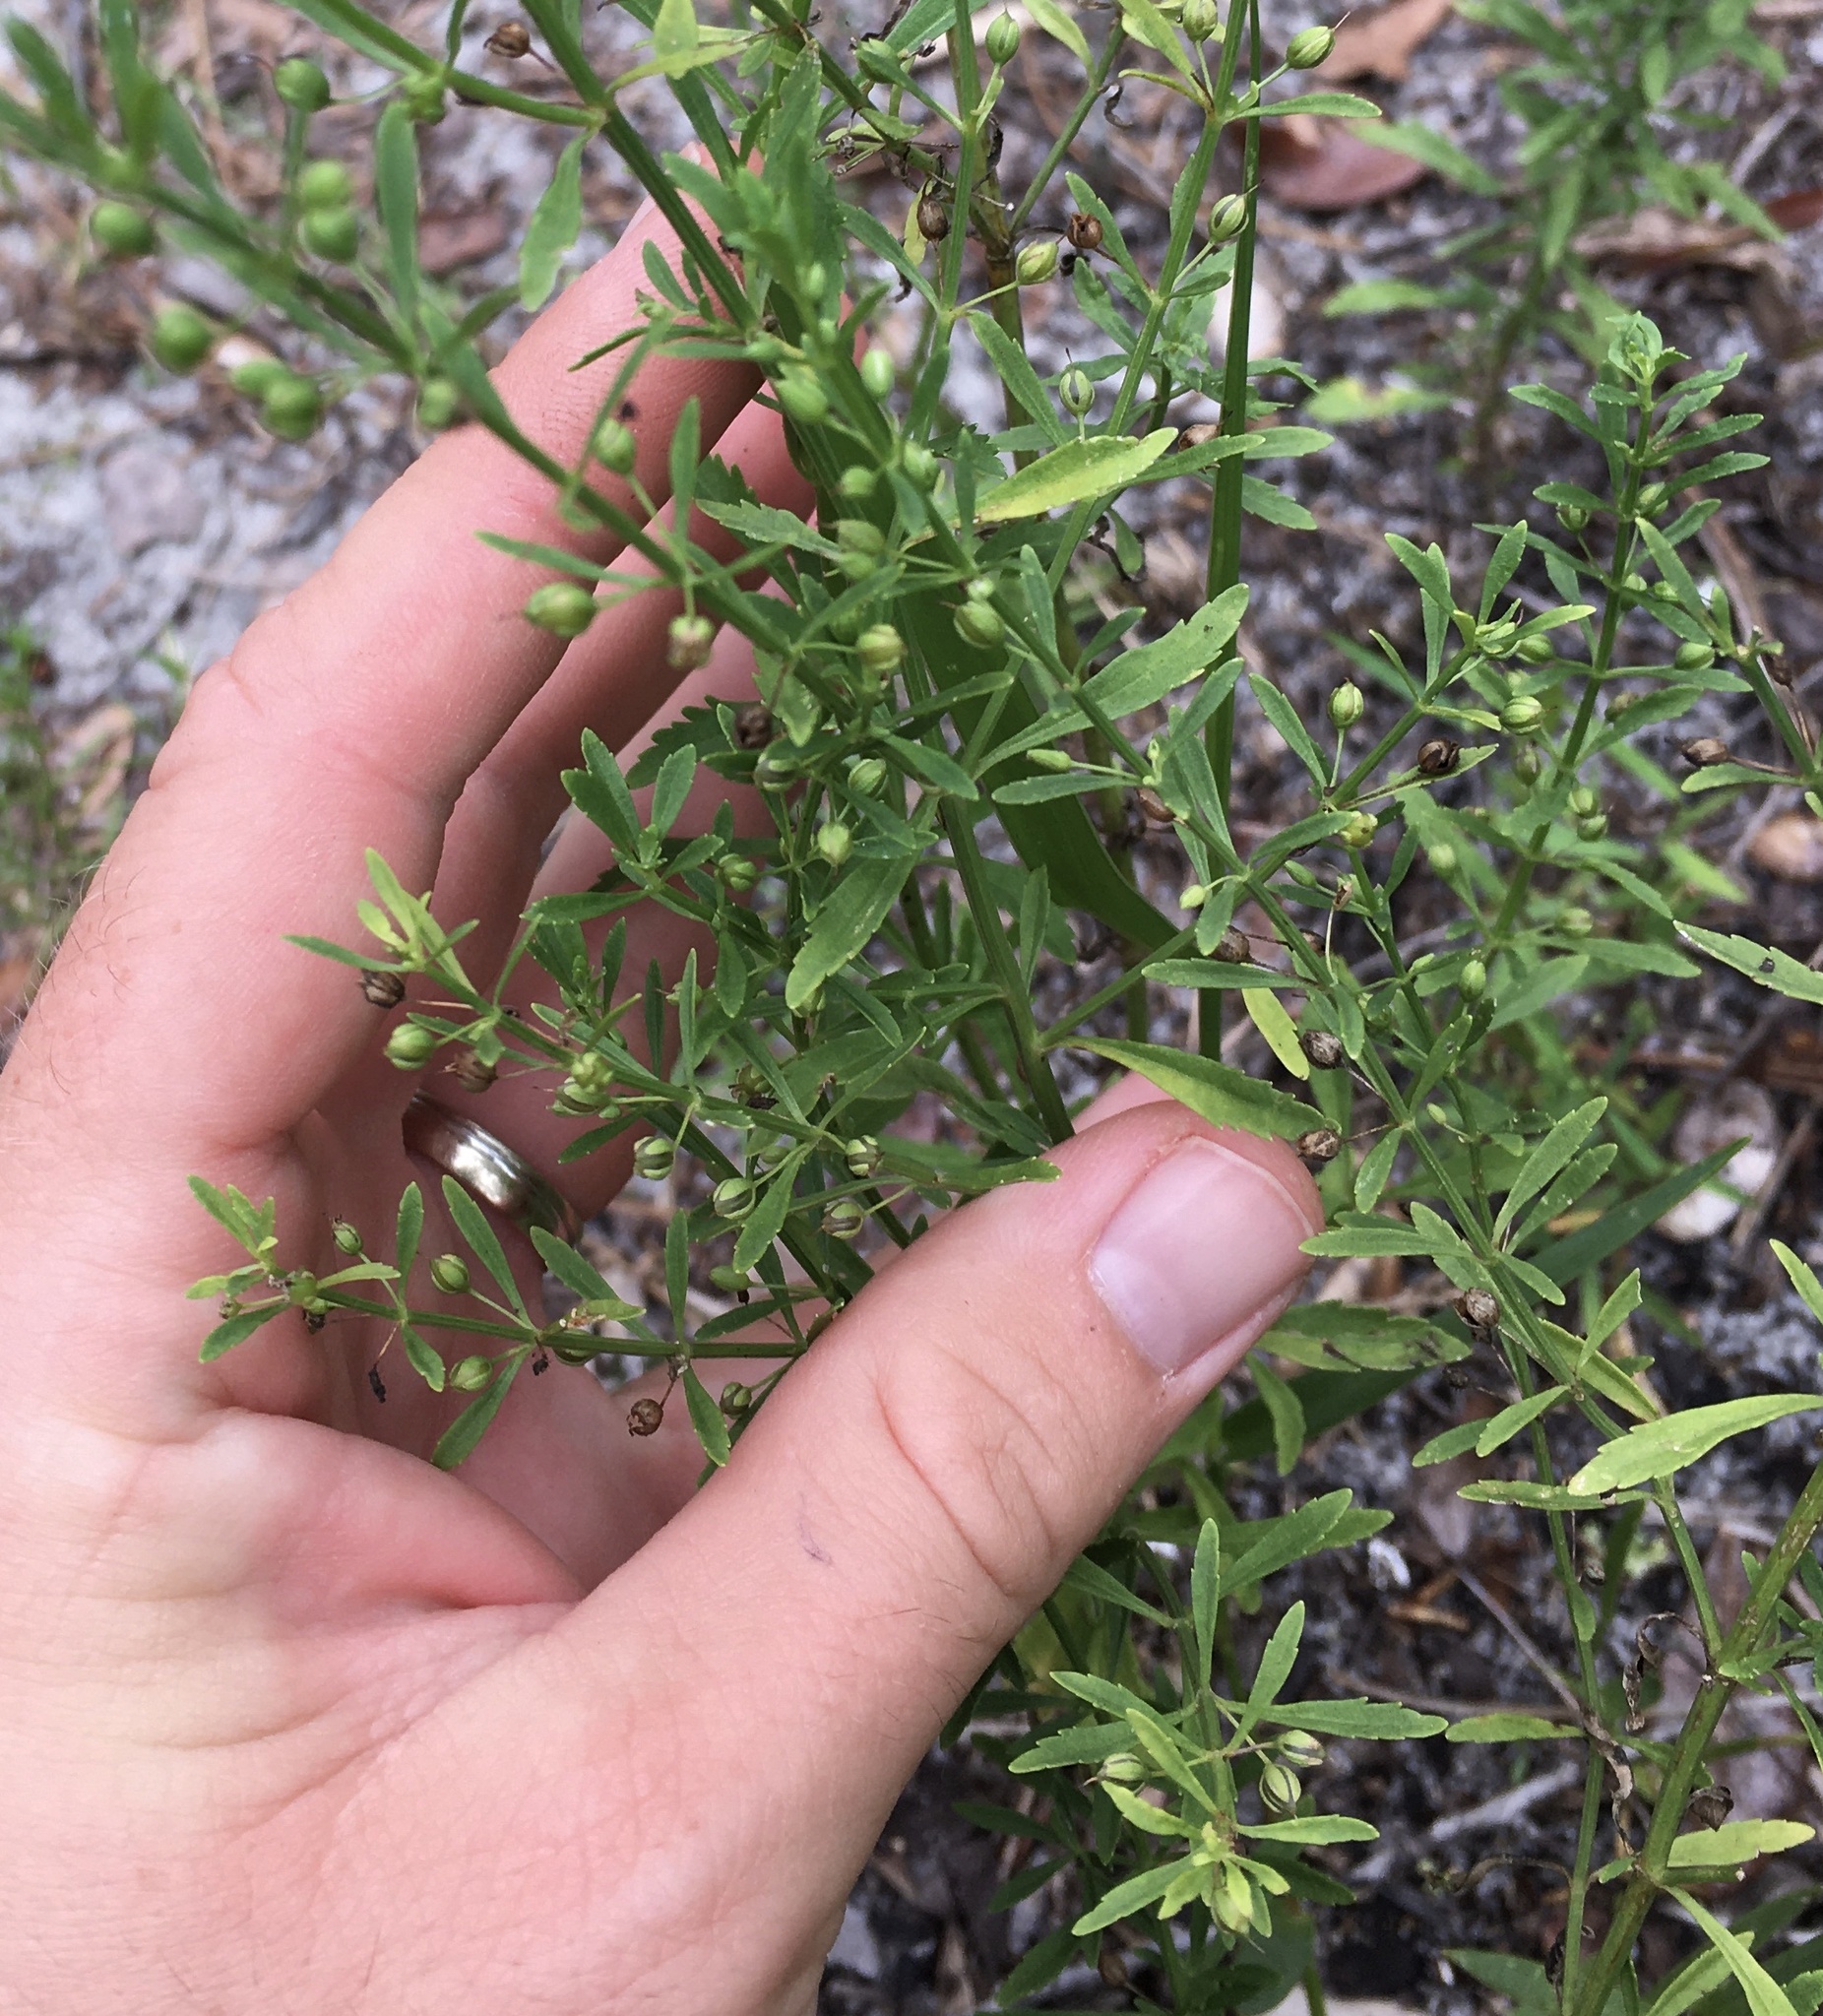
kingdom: Plantae
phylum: Tracheophyta
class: Magnoliopsida
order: Lamiales
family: Plantaginaceae
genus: Scoparia
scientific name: Scoparia dulcis
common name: Scoparia-weed
